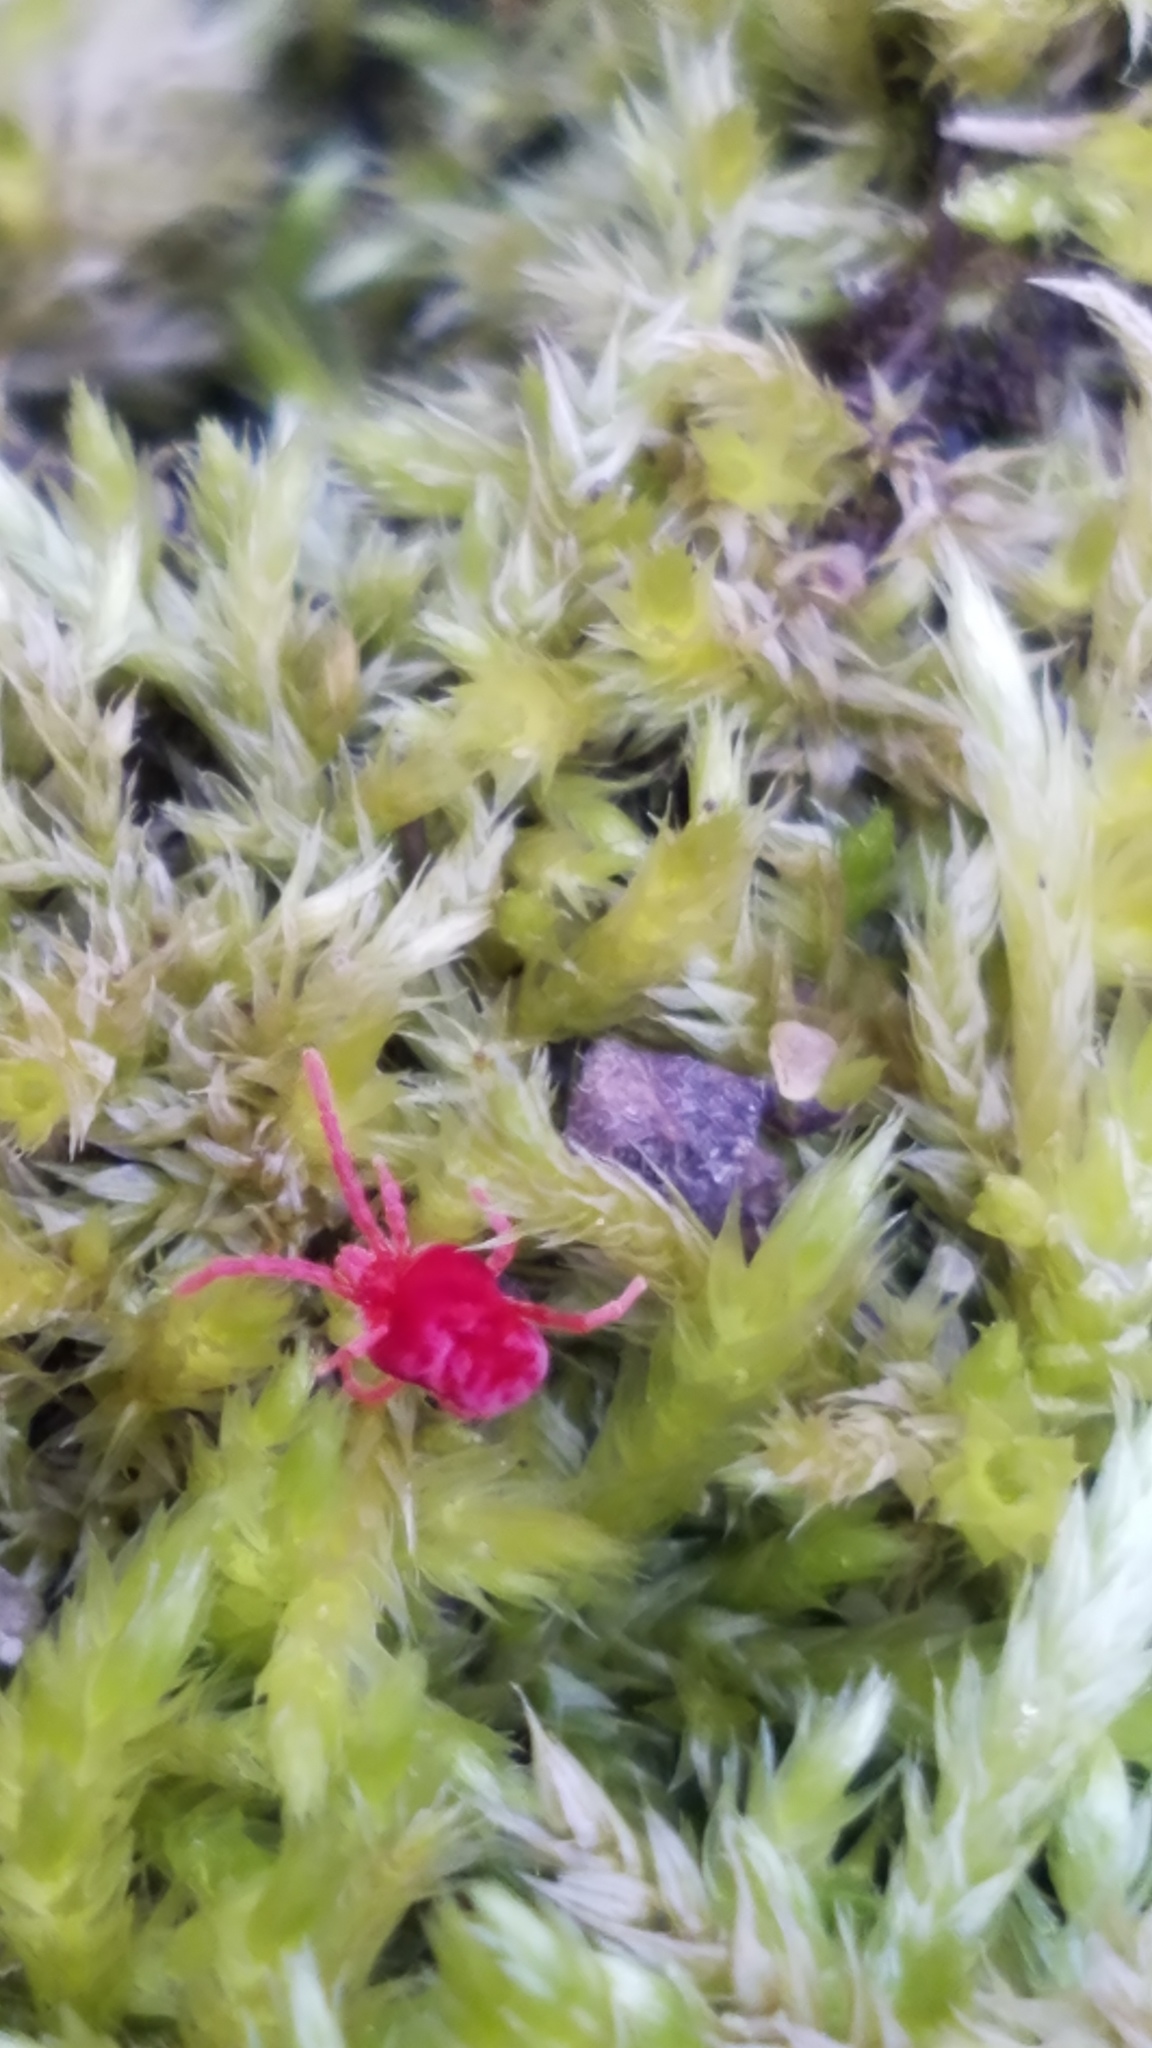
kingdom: Animalia
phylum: Arthropoda
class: Arachnida
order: Trombidiformes
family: Trombidiidae
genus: Trombidium
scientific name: Trombidium
